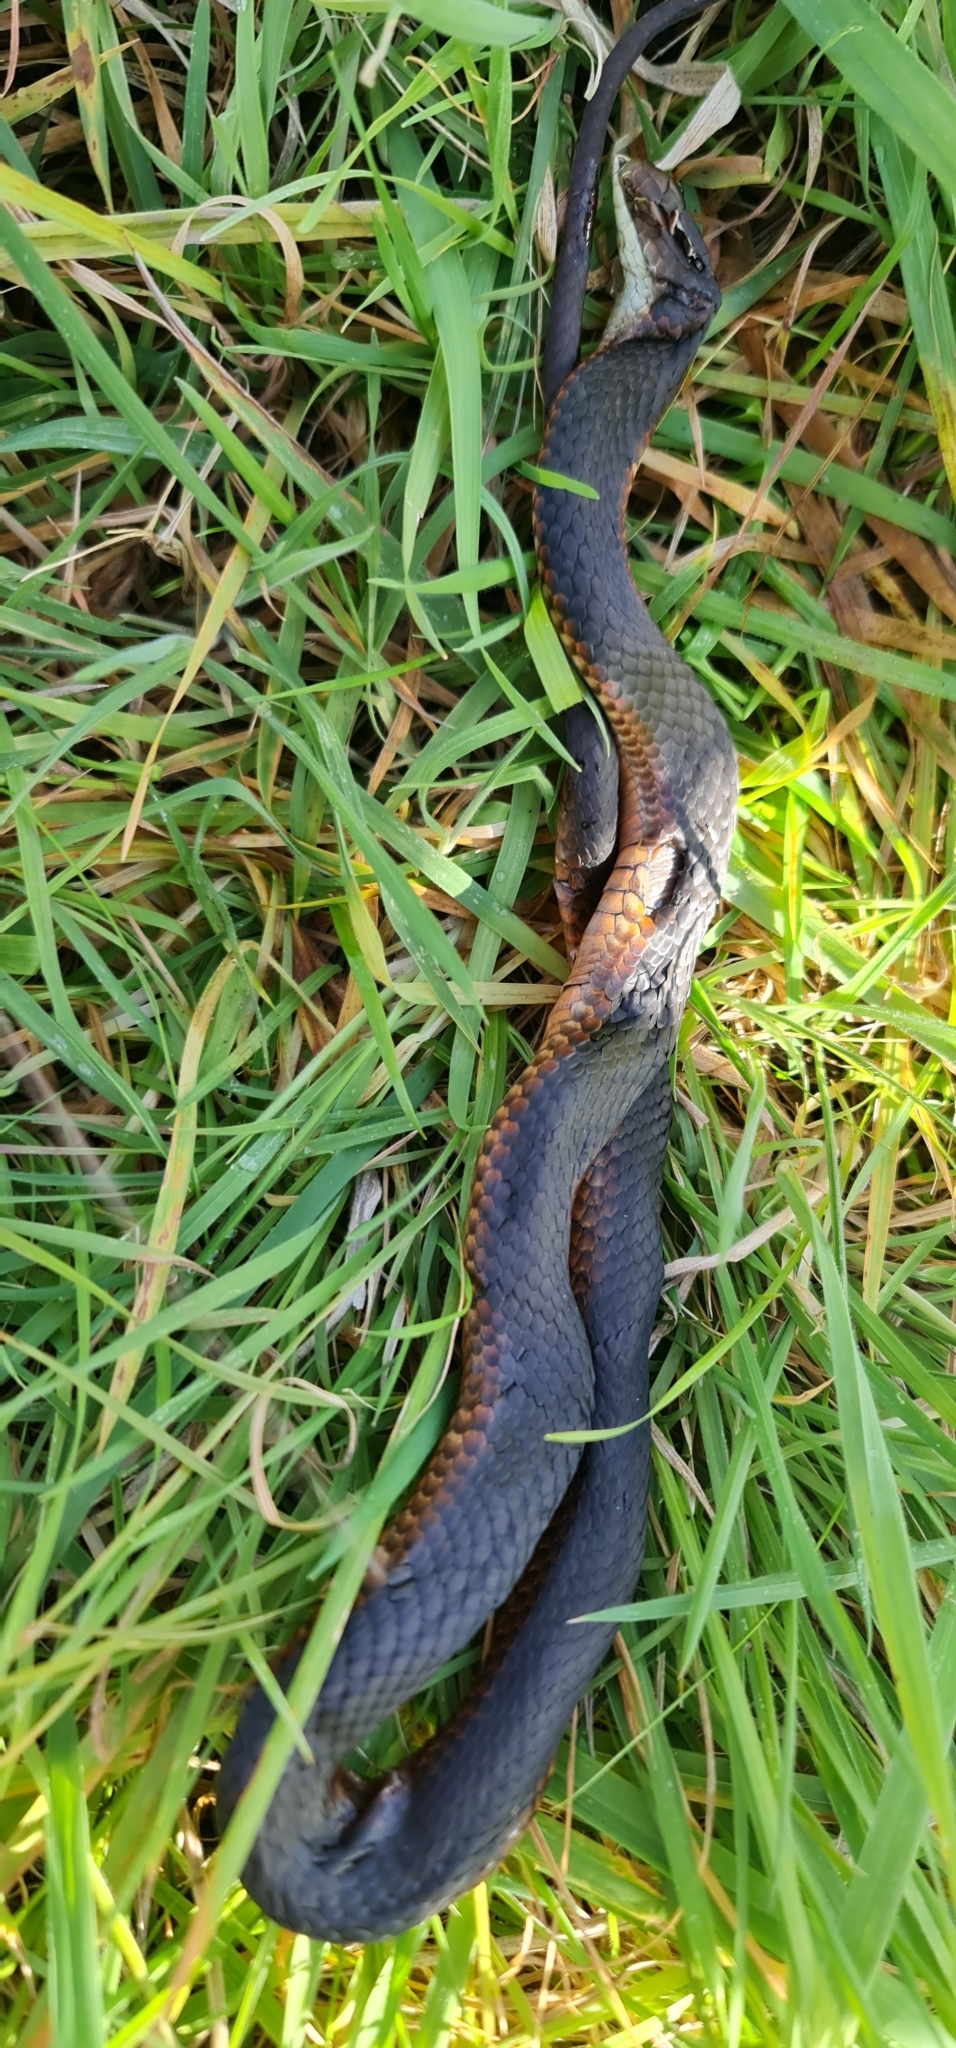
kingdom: Animalia
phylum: Chordata
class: Squamata
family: Elapidae
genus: Austrelaps
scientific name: Austrelaps superbus
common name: Copperhead snake
